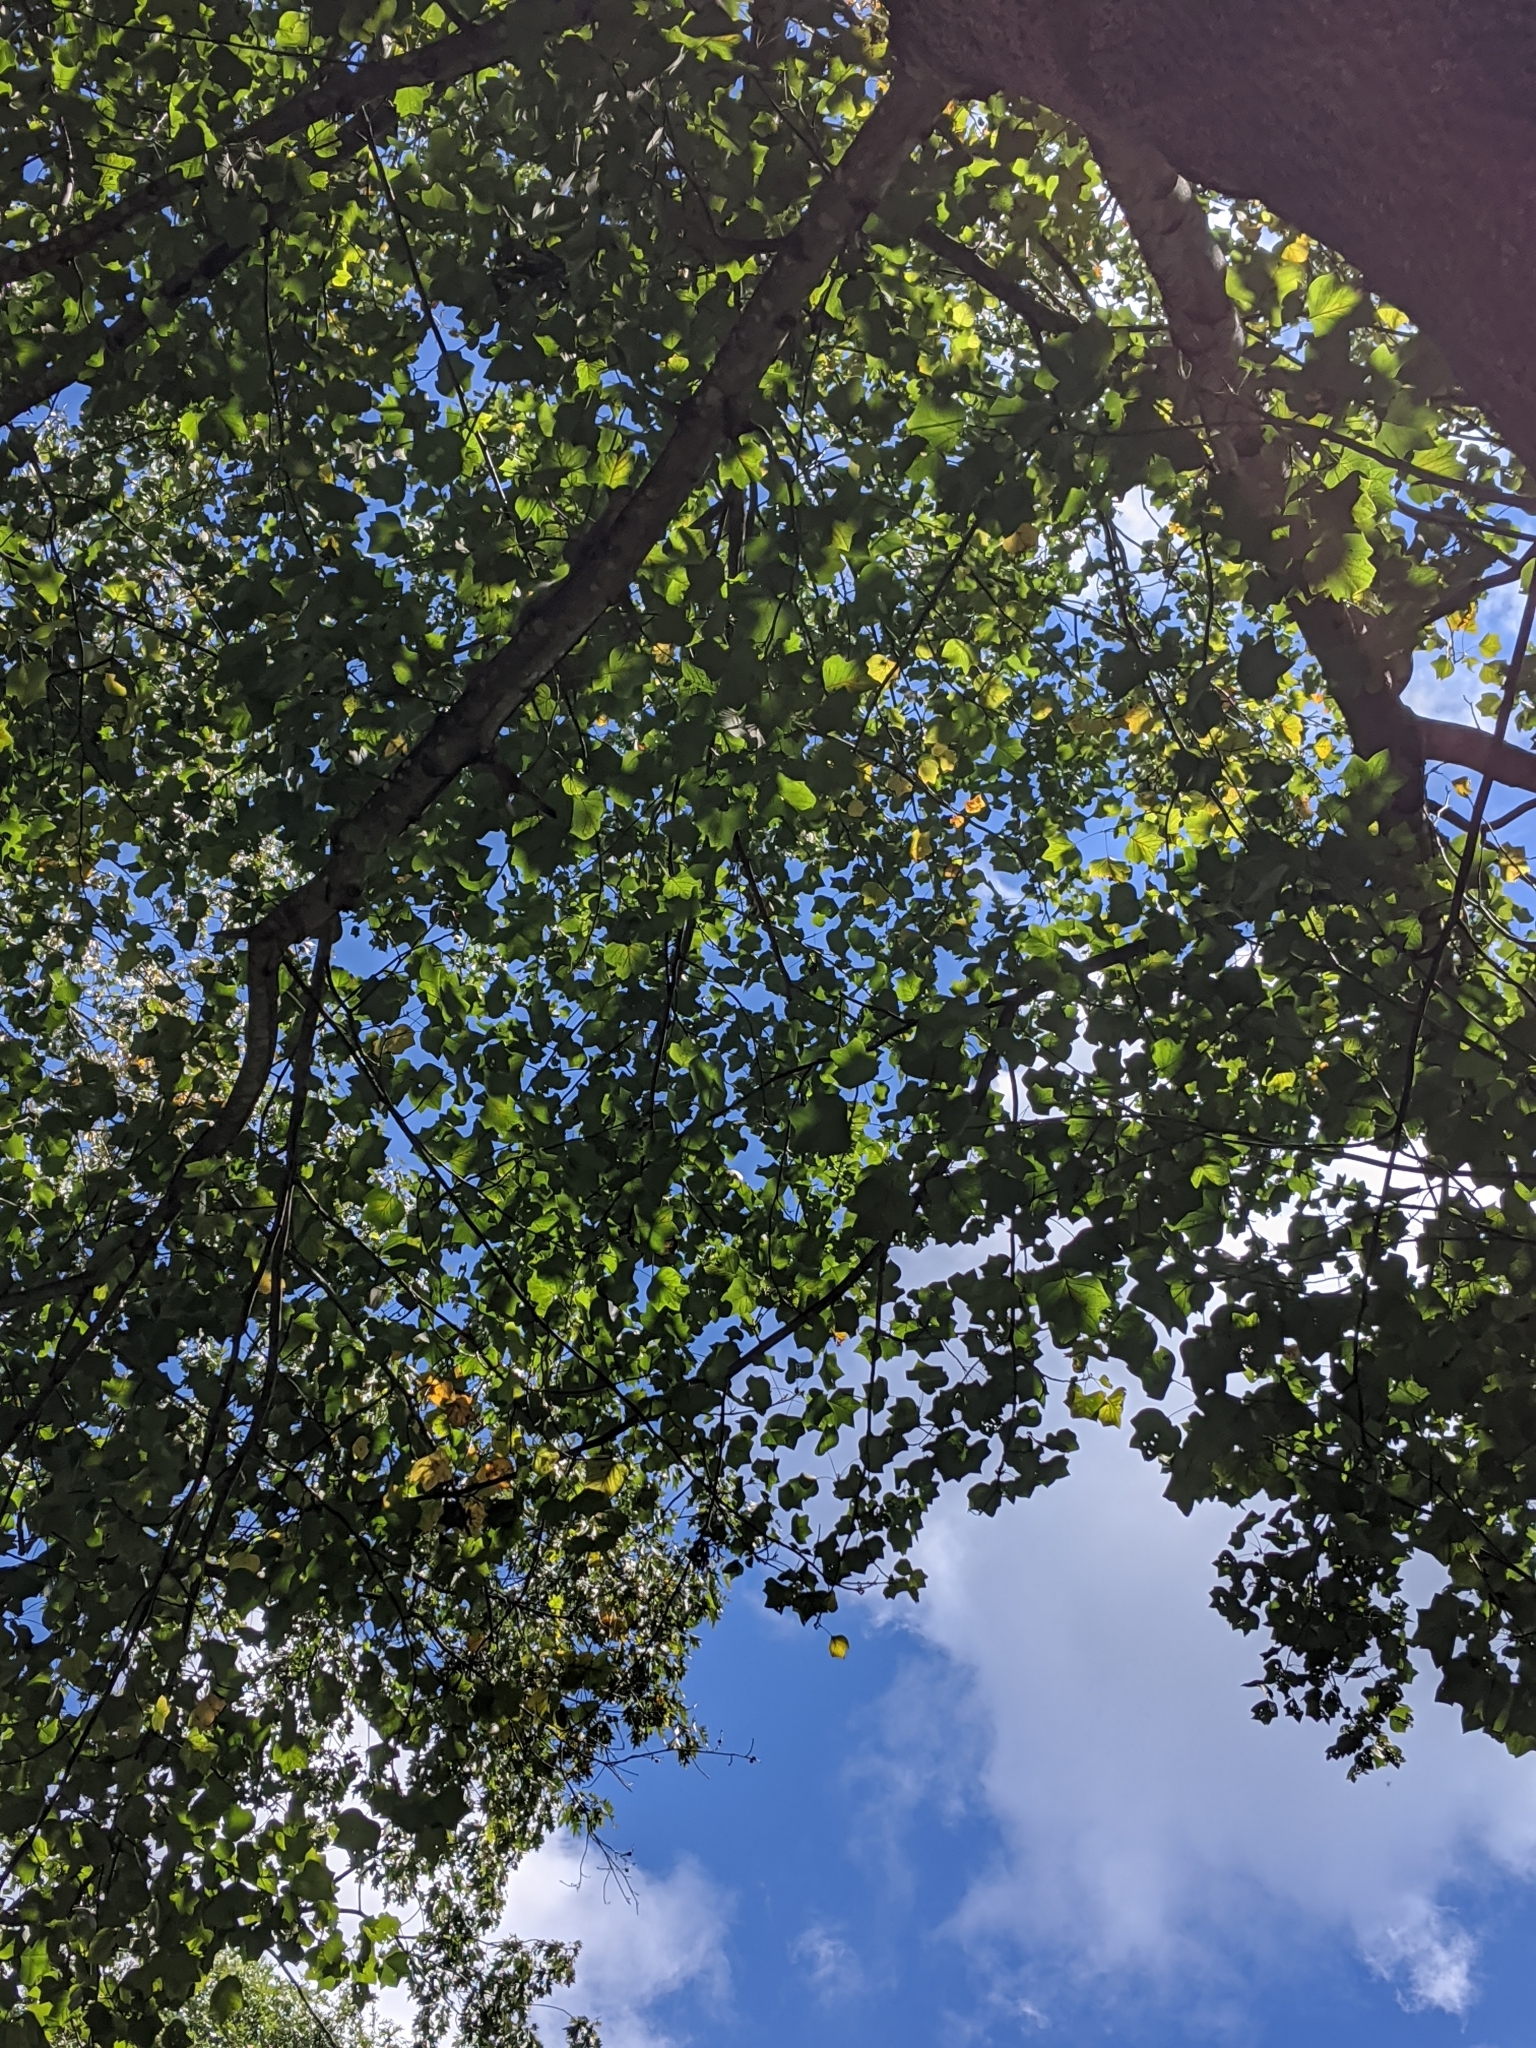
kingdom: Plantae
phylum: Tracheophyta
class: Magnoliopsida
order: Magnoliales
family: Magnoliaceae
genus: Liriodendron
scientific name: Liriodendron tulipifera
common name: Tulip tree
